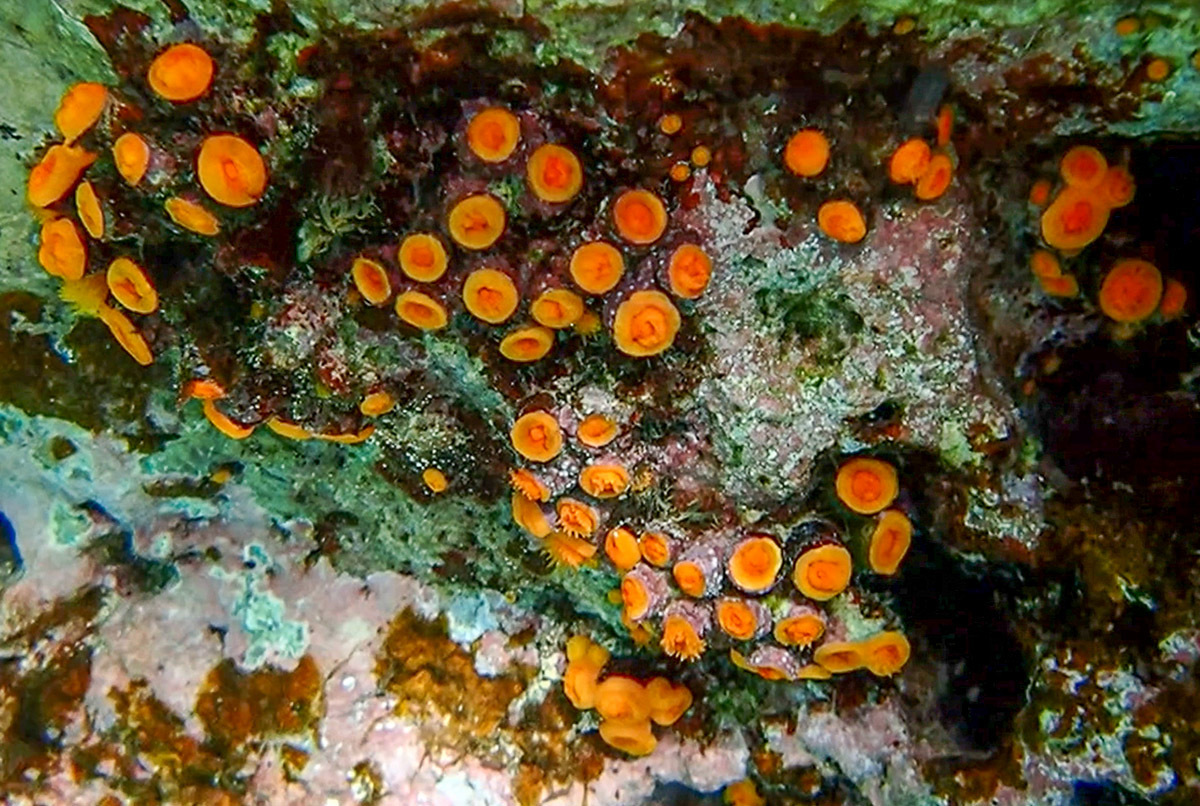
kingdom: Animalia
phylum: Cnidaria
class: Anthozoa
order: Scleractinia
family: Dendrophylliidae
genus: Astroides
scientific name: Astroides calycularis
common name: Star coral
